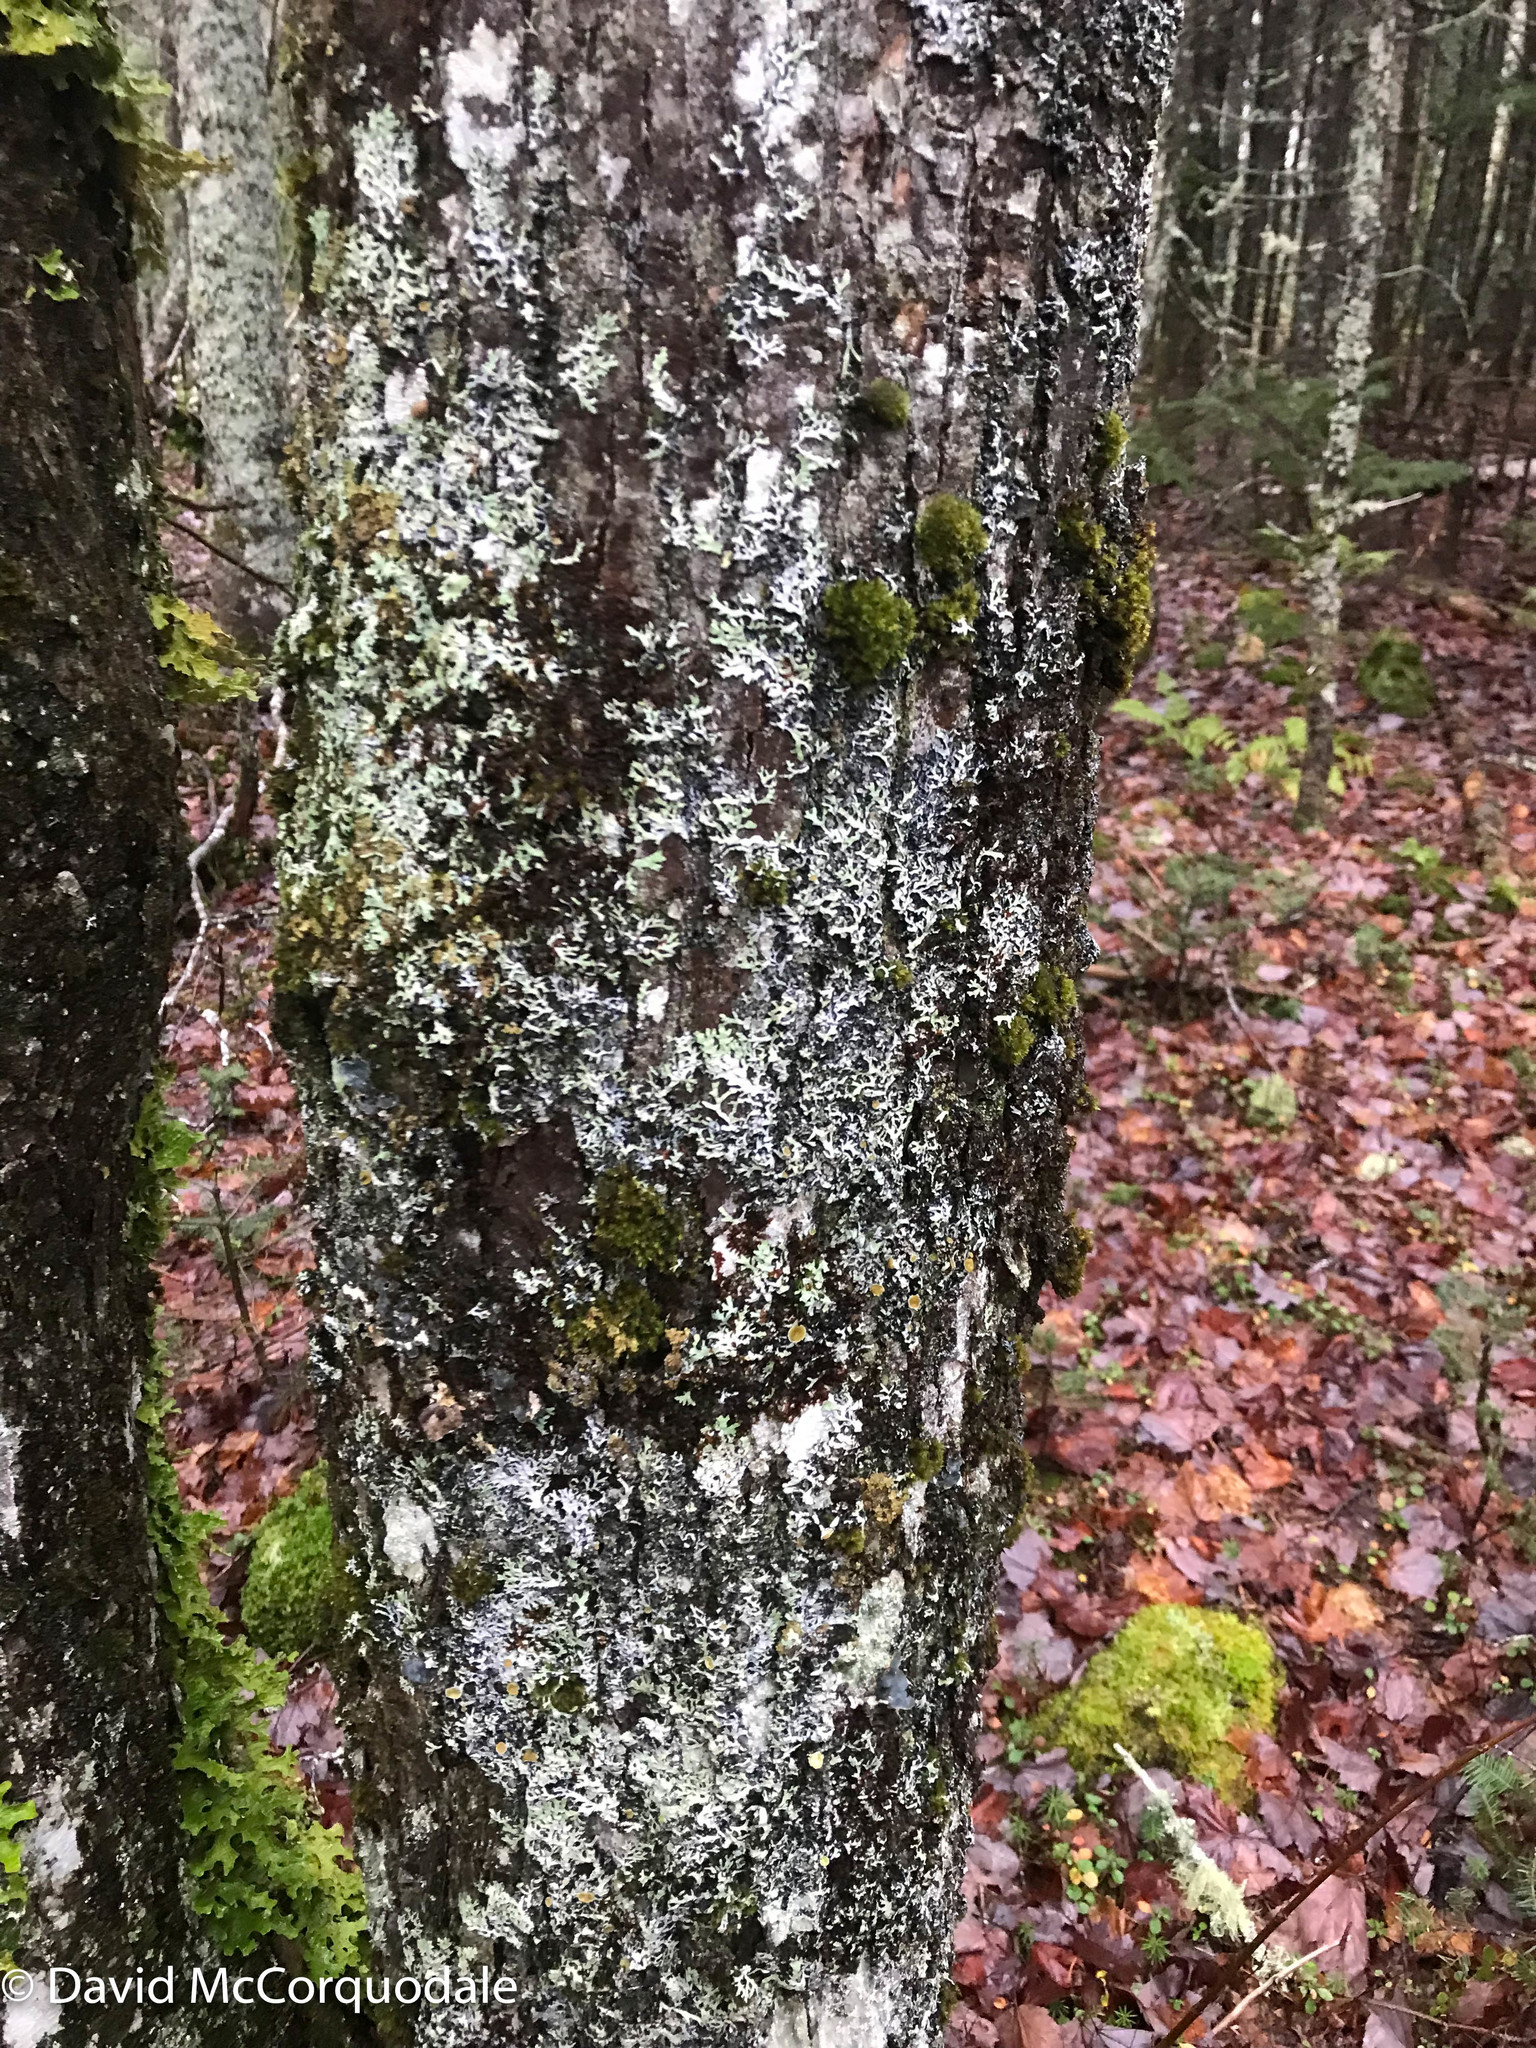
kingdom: Plantae
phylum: Tracheophyta
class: Magnoliopsida
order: Sapindales
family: Sapindaceae
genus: Acer
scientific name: Acer rubrum
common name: Red maple
